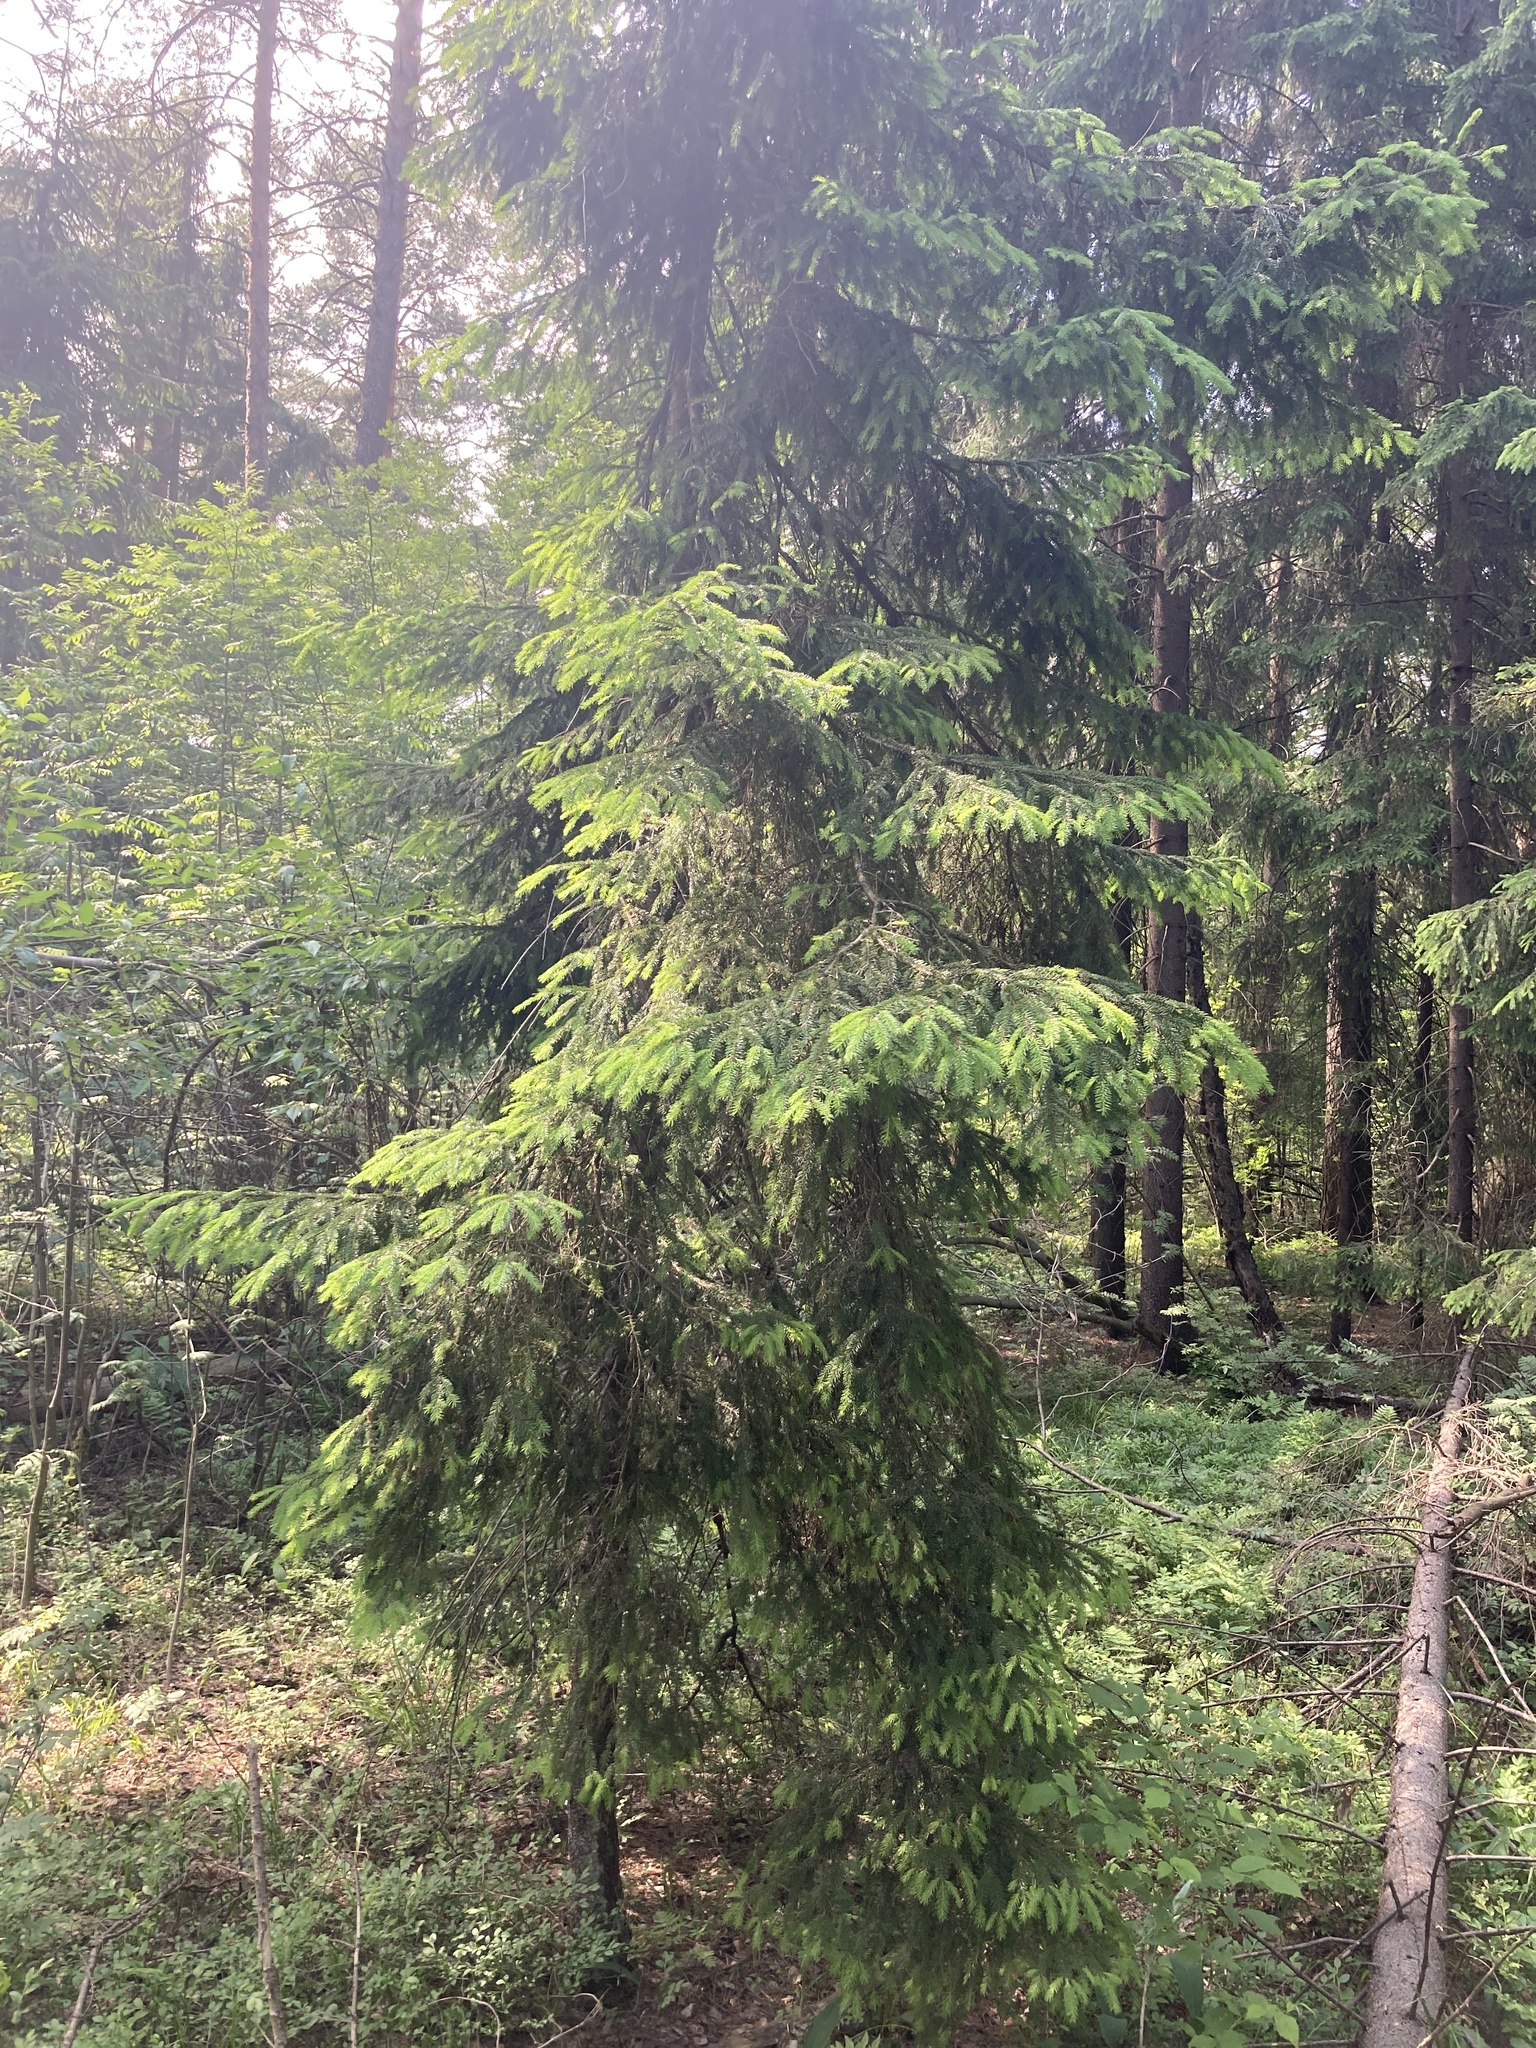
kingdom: Plantae
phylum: Tracheophyta
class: Pinopsida
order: Pinales
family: Pinaceae
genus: Picea
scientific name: Picea abies
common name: Norway spruce
